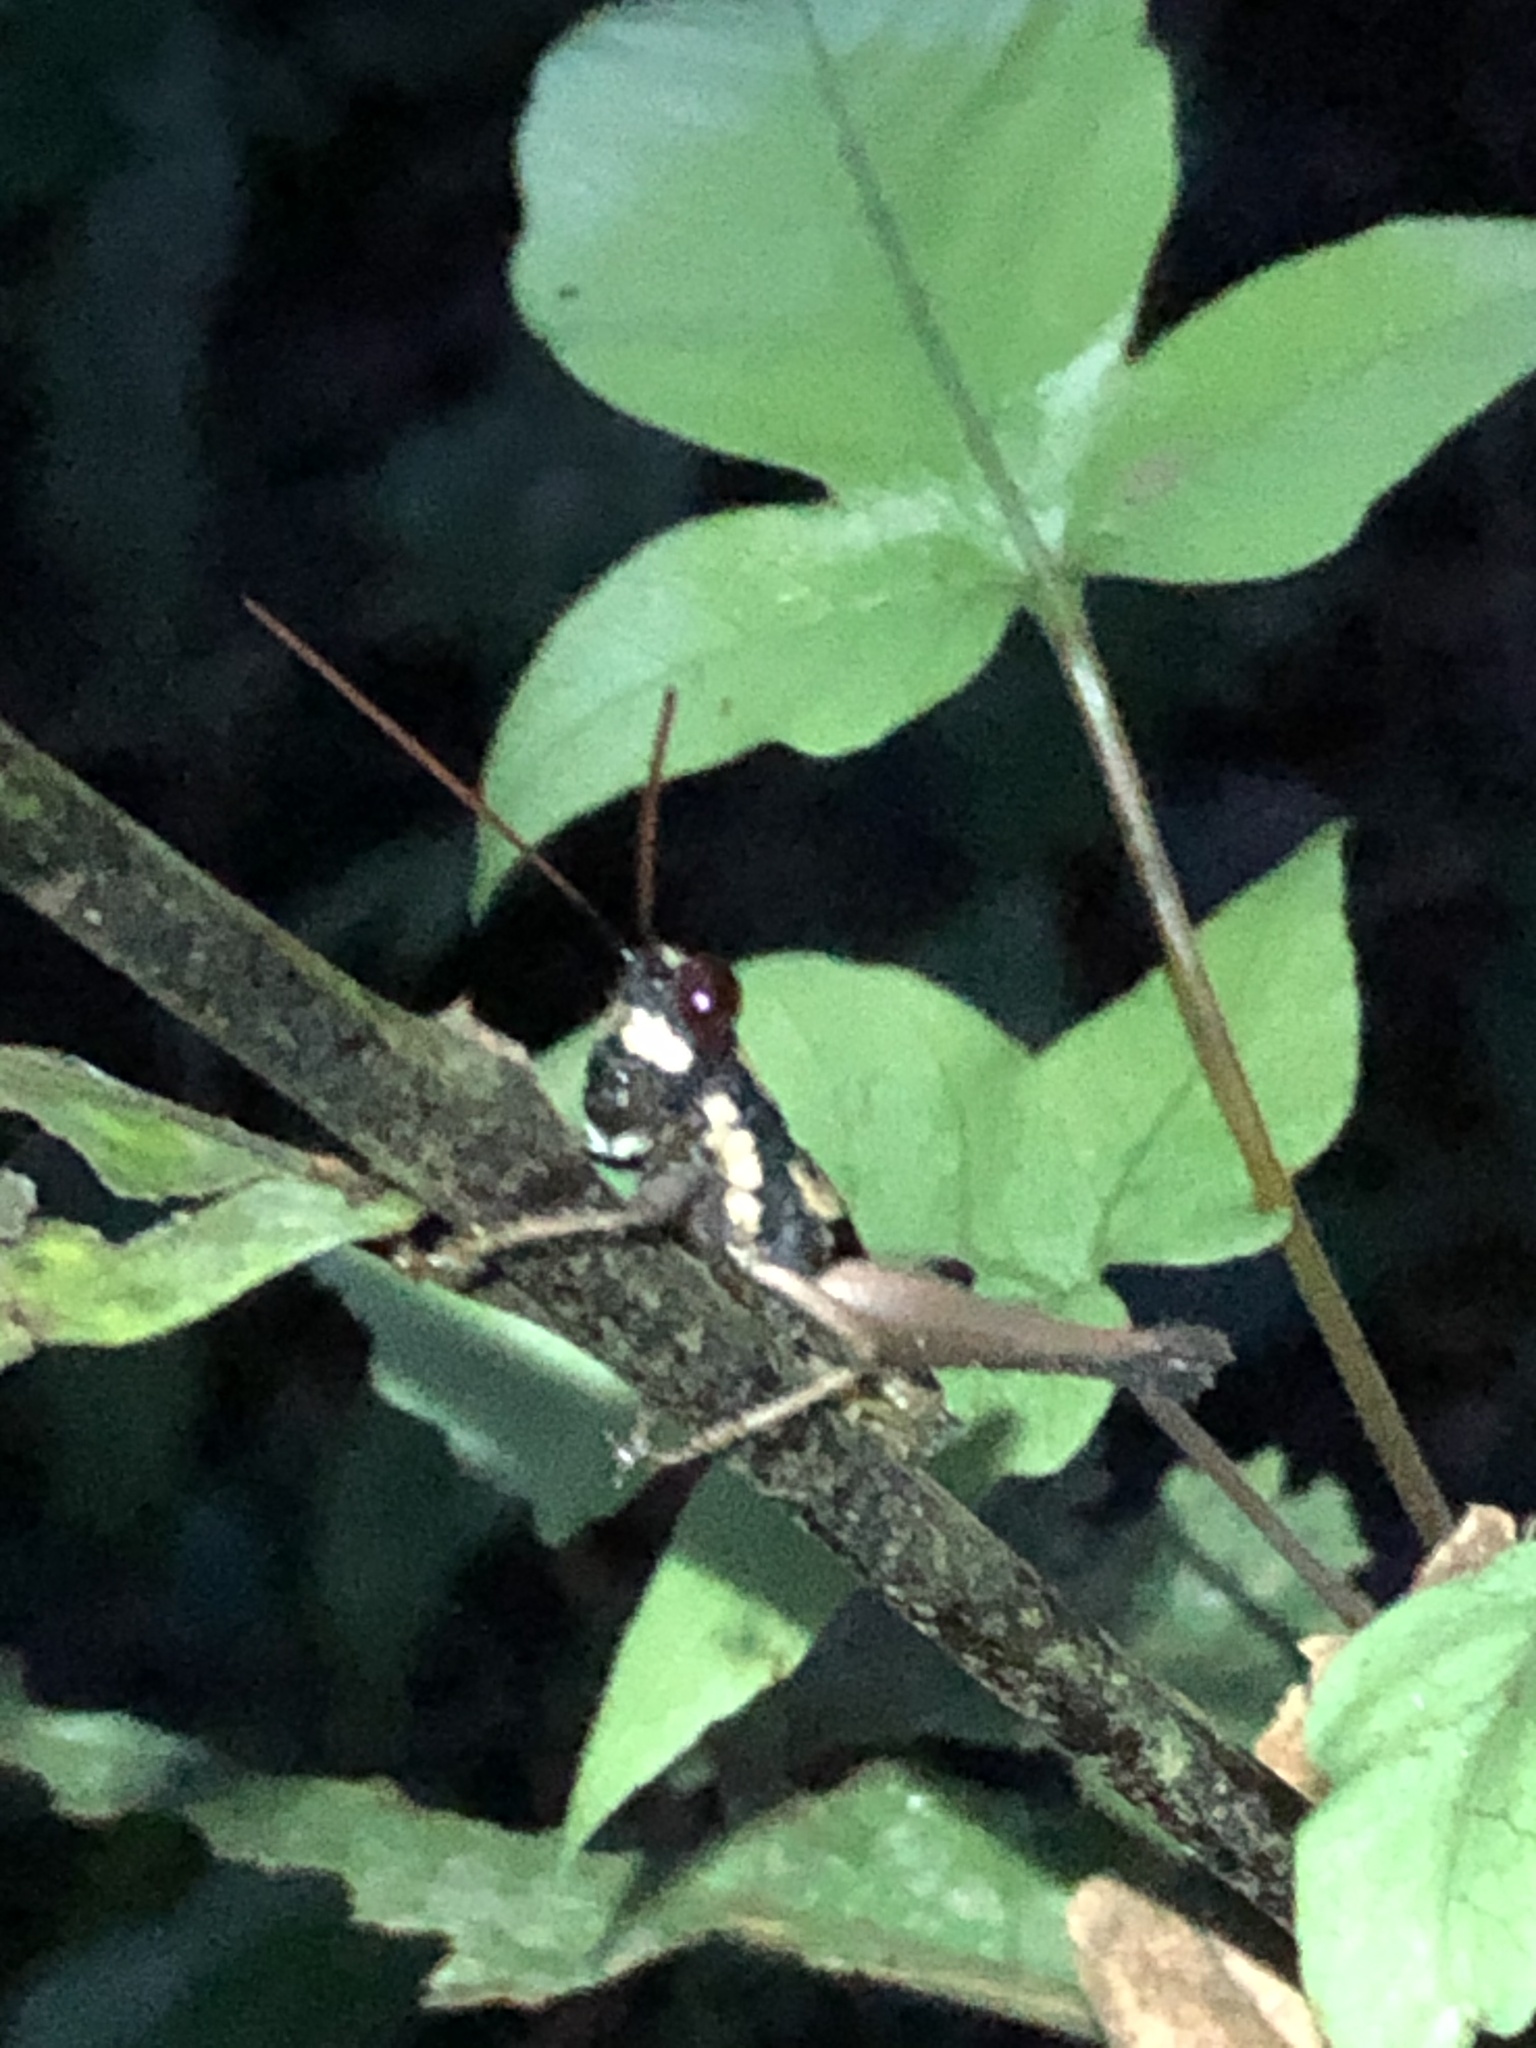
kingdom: Animalia
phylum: Arthropoda
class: Insecta
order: Orthoptera
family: Acrididae
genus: Stenelutracris
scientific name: Stenelutracris lignicola
